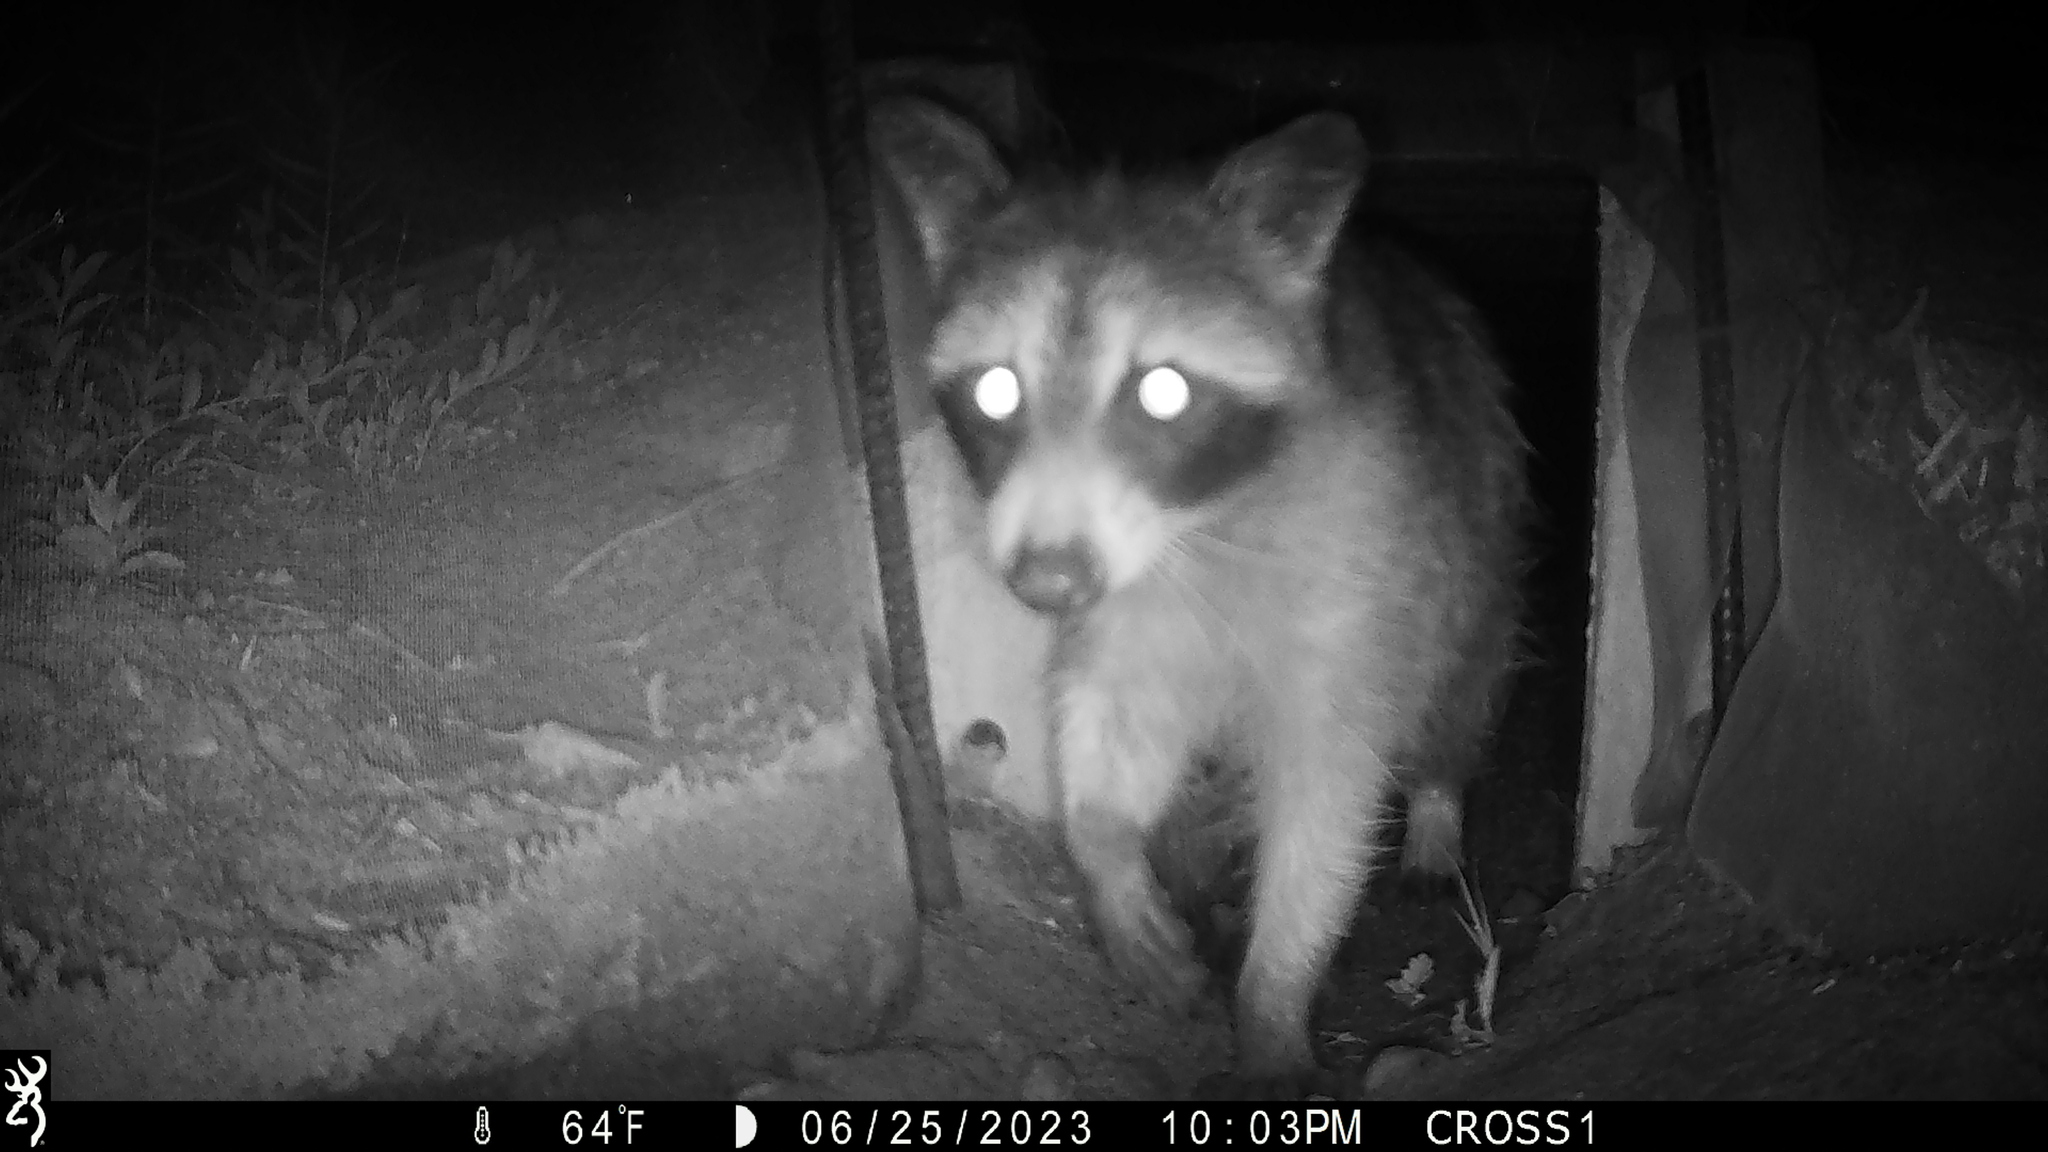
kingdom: Animalia
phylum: Chordata
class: Mammalia
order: Carnivora
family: Procyonidae
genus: Procyon
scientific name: Procyon lotor
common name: Raccoon
